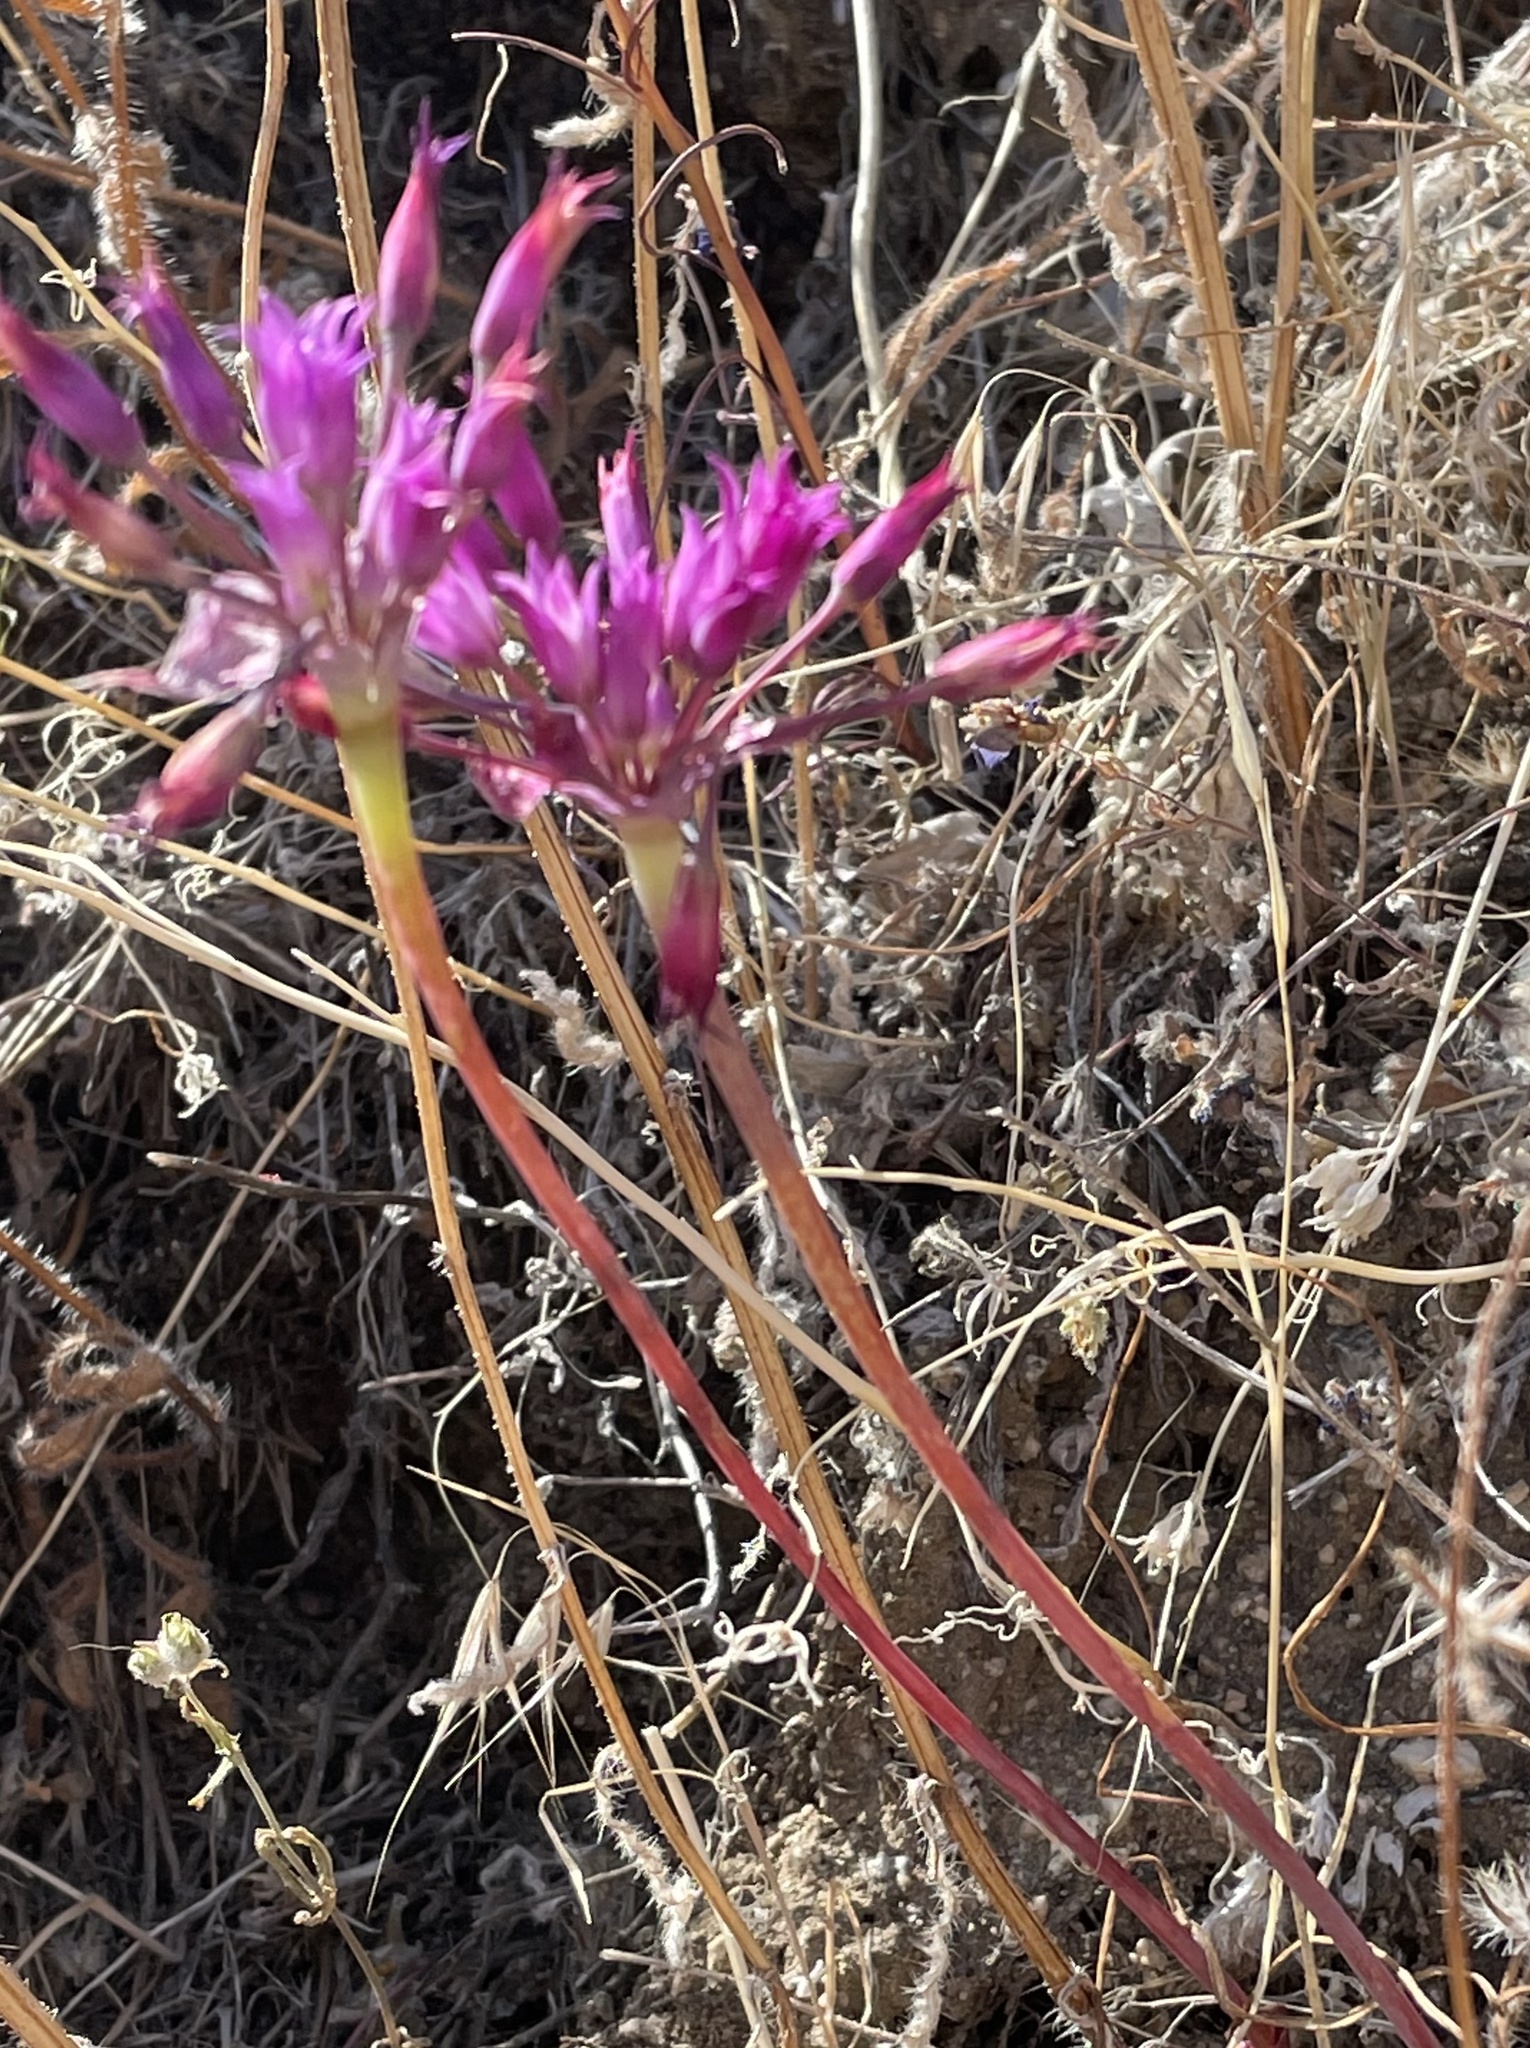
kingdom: Plantae
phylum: Tracheophyta
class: Liliopsida
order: Asparagales
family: Amaryllidaceae
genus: Allium
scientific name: Allium peninsulare
